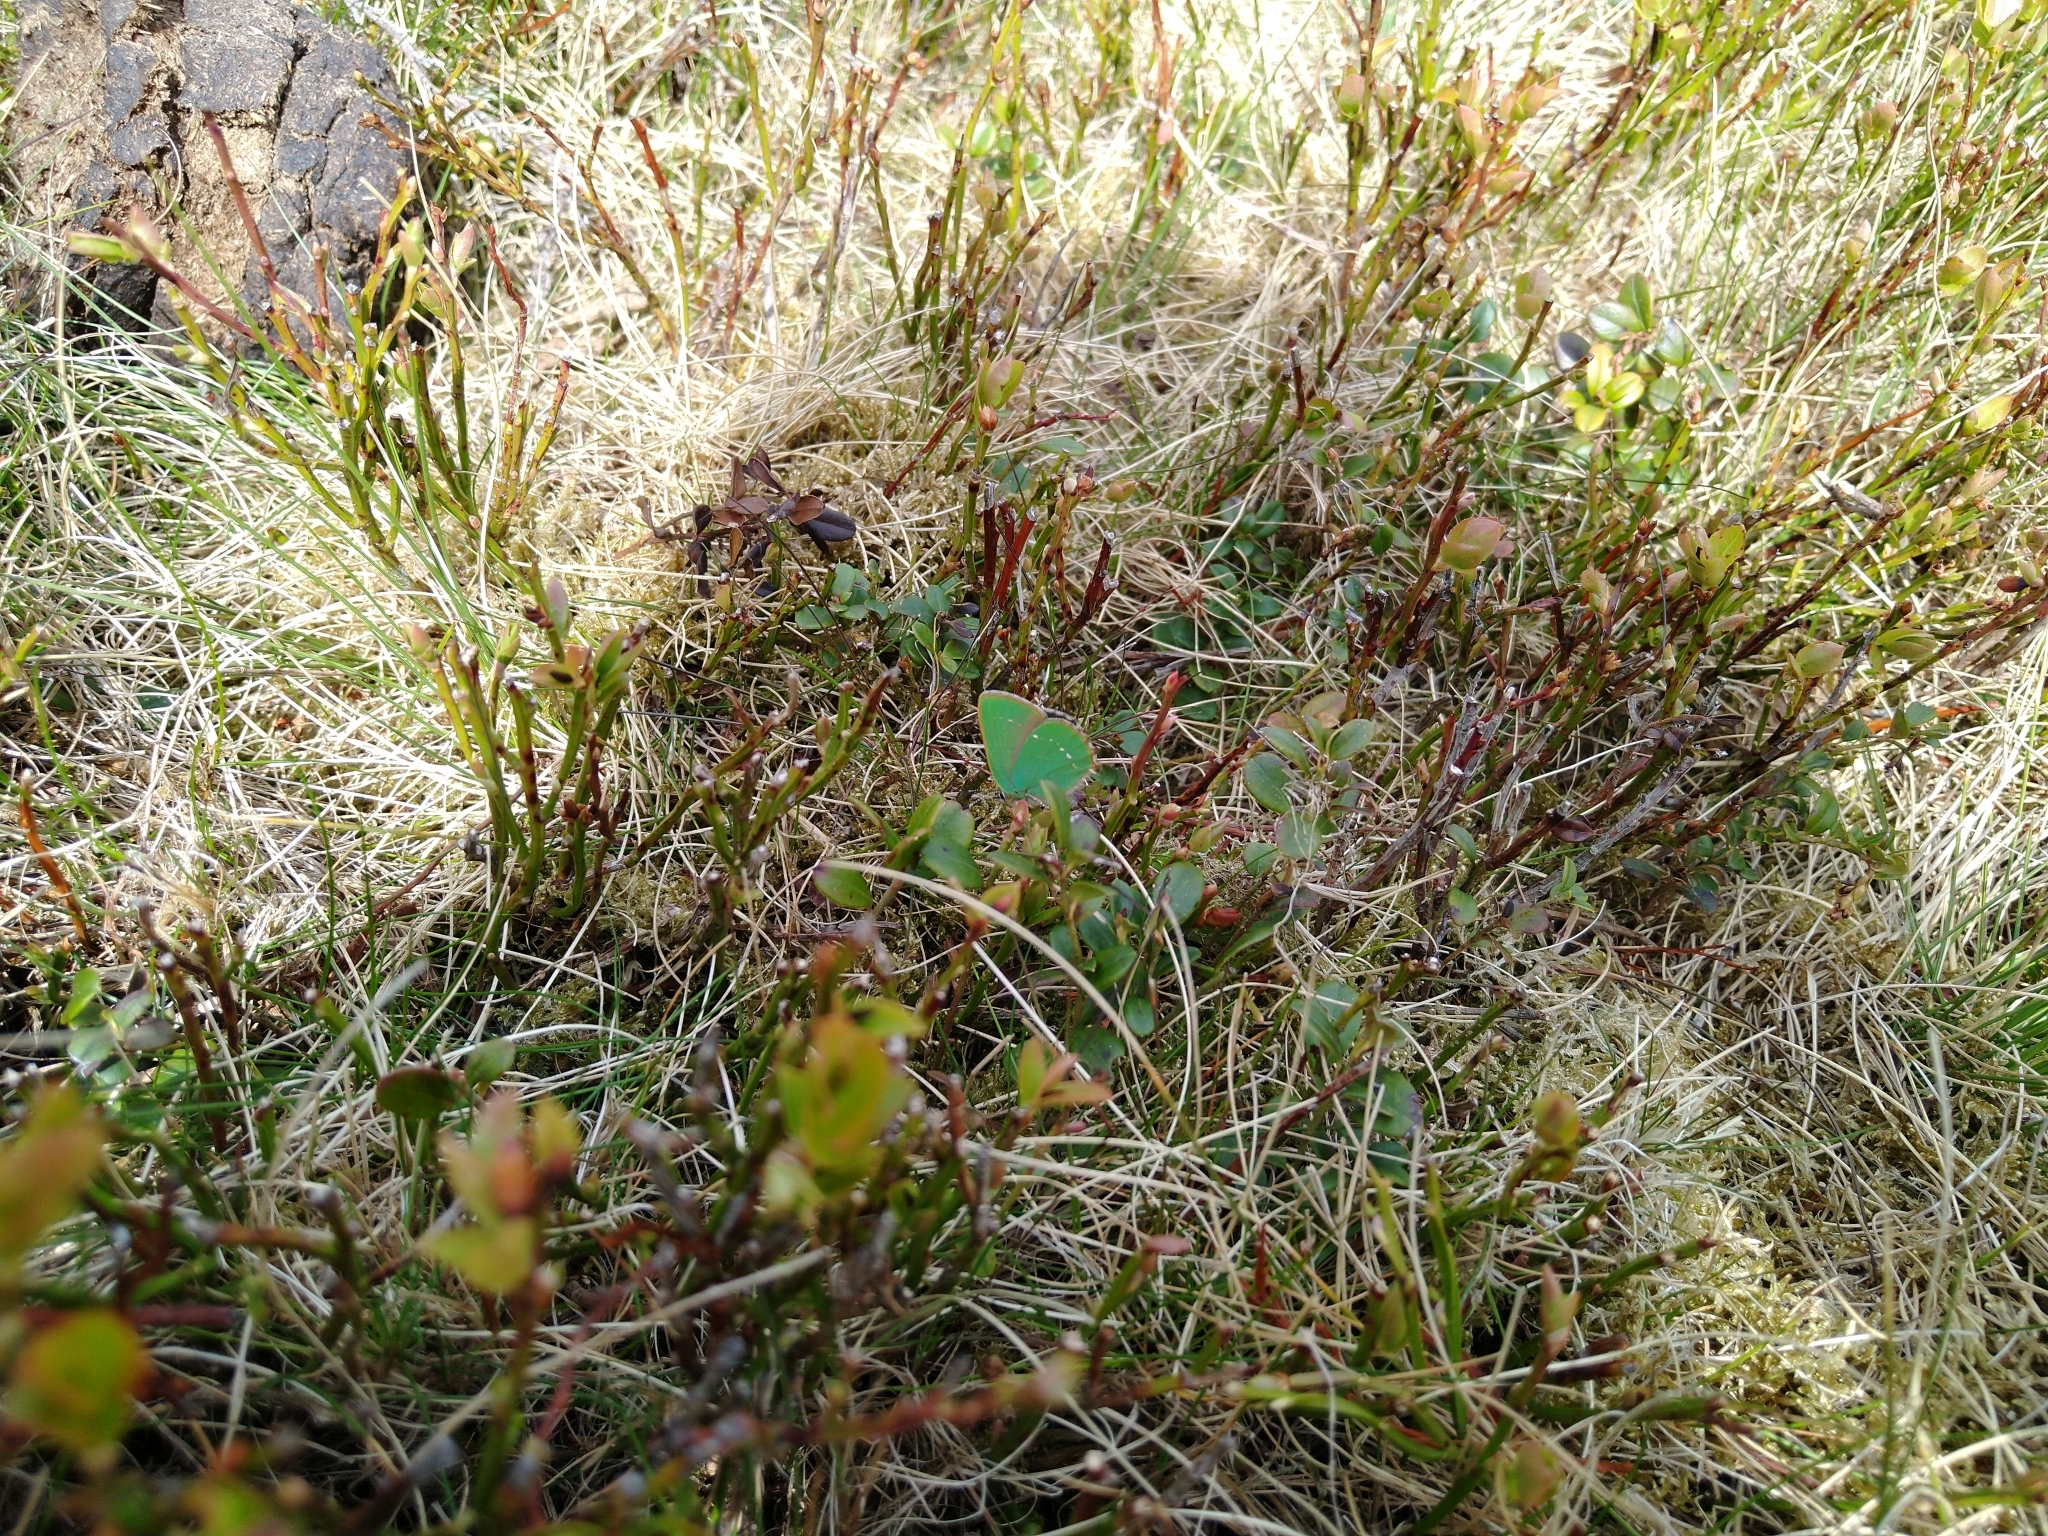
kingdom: Animalia
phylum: Arthropoda
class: Insecta
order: Lepidoptera
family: Lycaenidae
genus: Callophrys
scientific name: Callophrys rubi
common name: Green hairstreak
